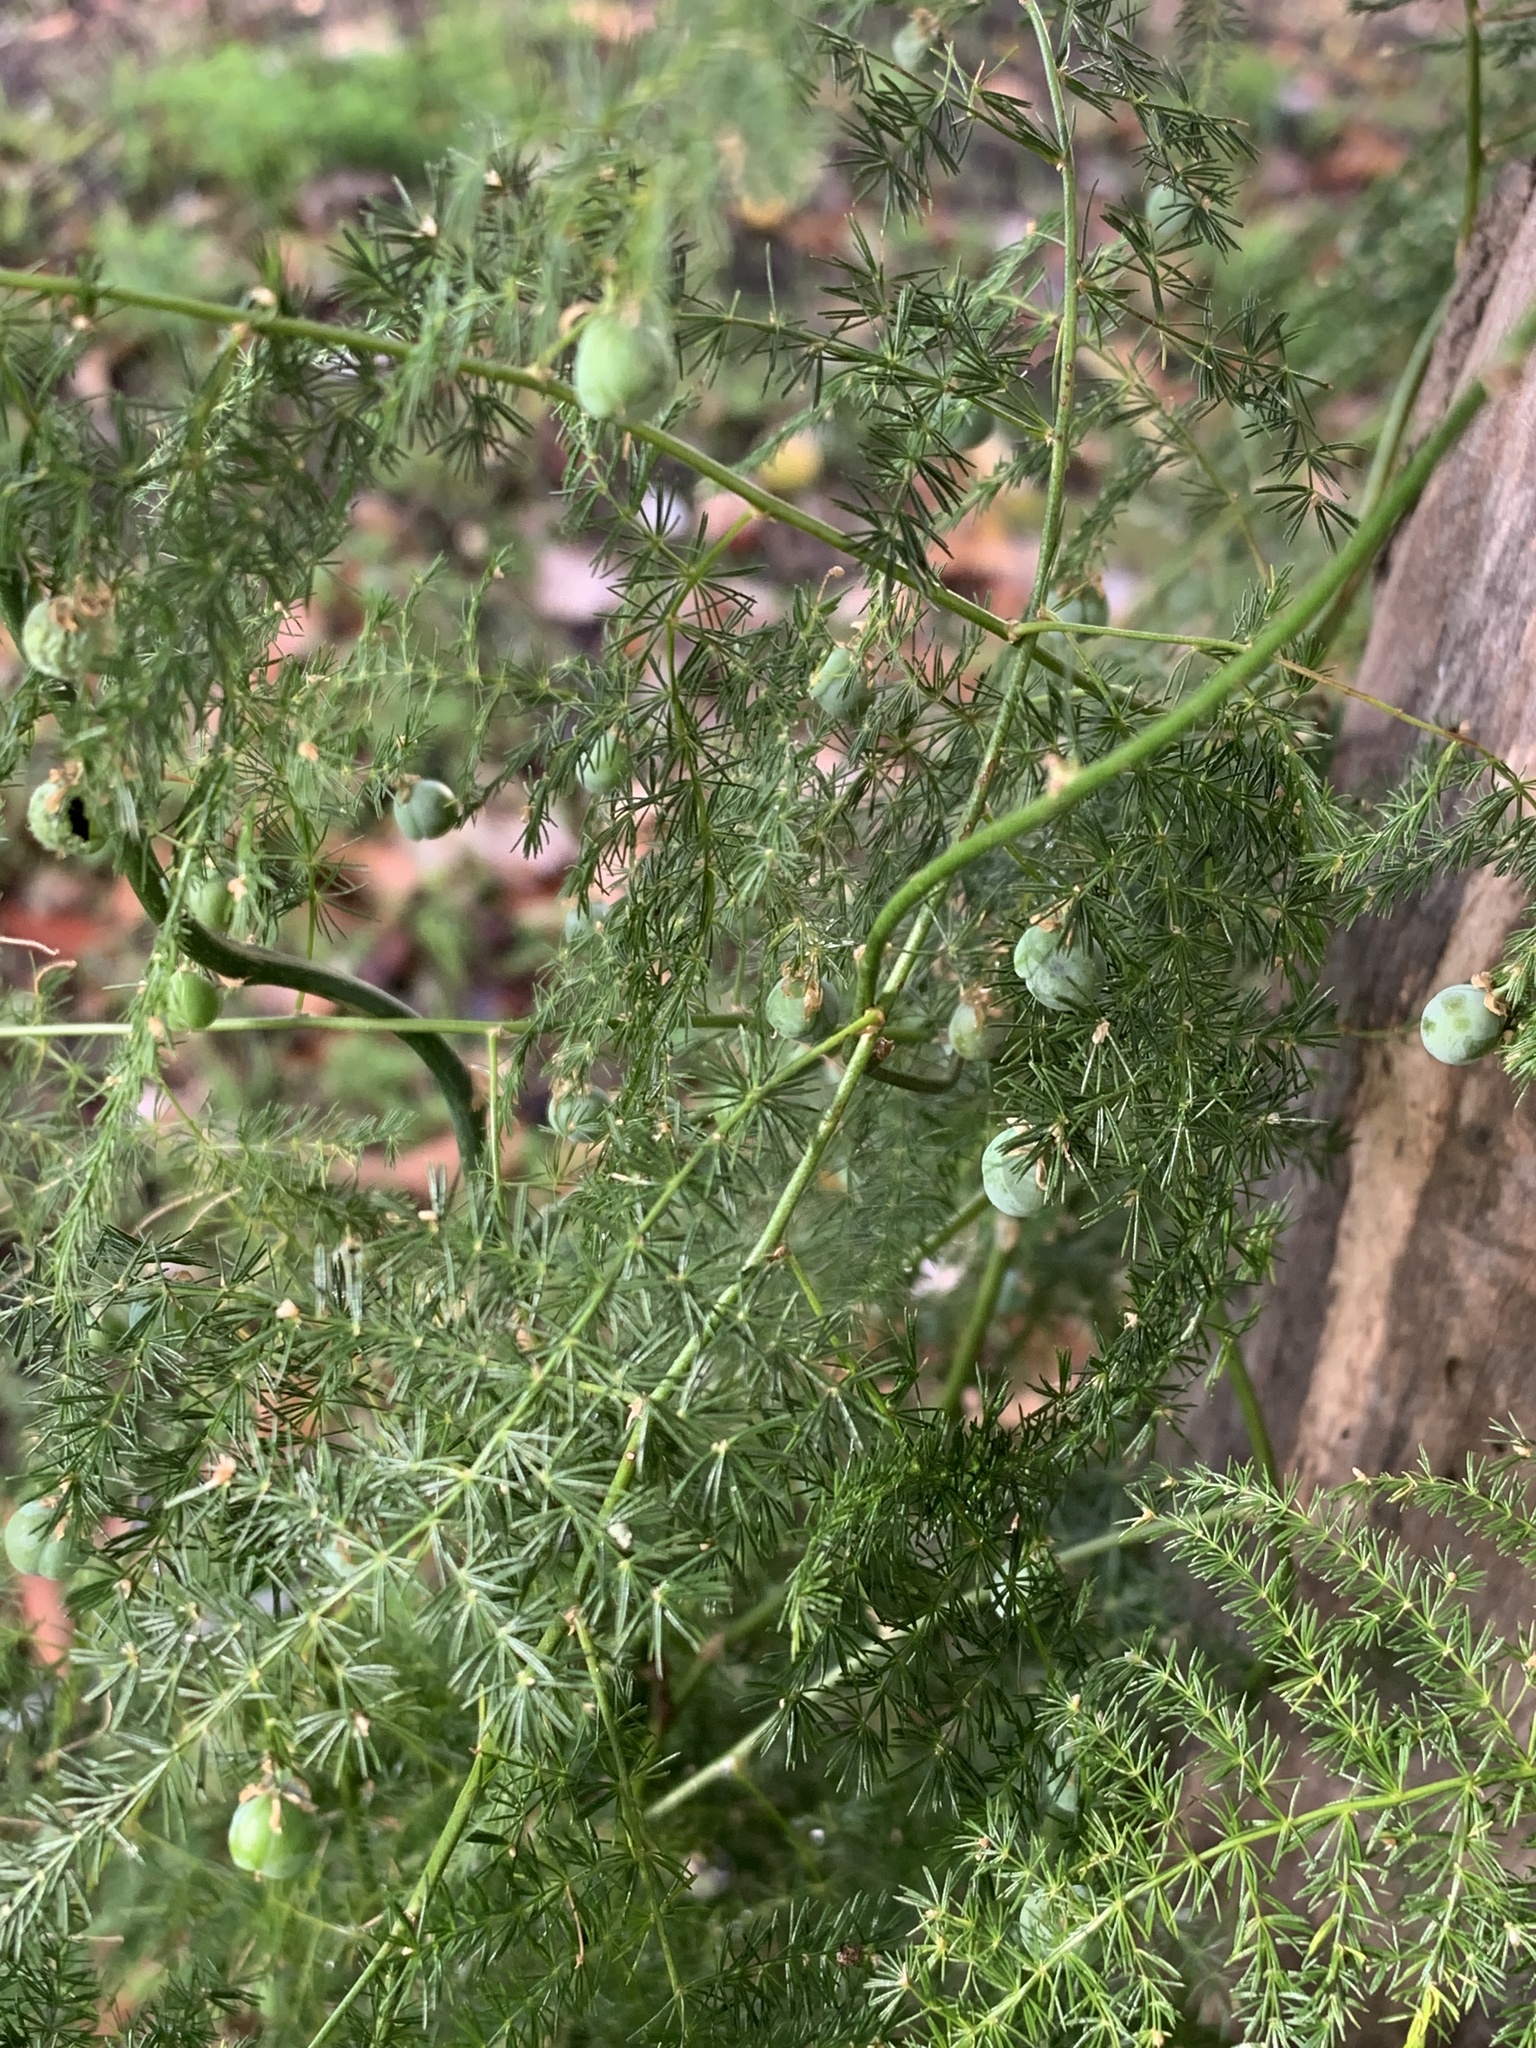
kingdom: Plantae
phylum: Tracheophyta
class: Liliopsida
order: Asparagales
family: Asparagaceae
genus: Asparagus
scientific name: Asparagus setaceus
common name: Common asparagus fern
